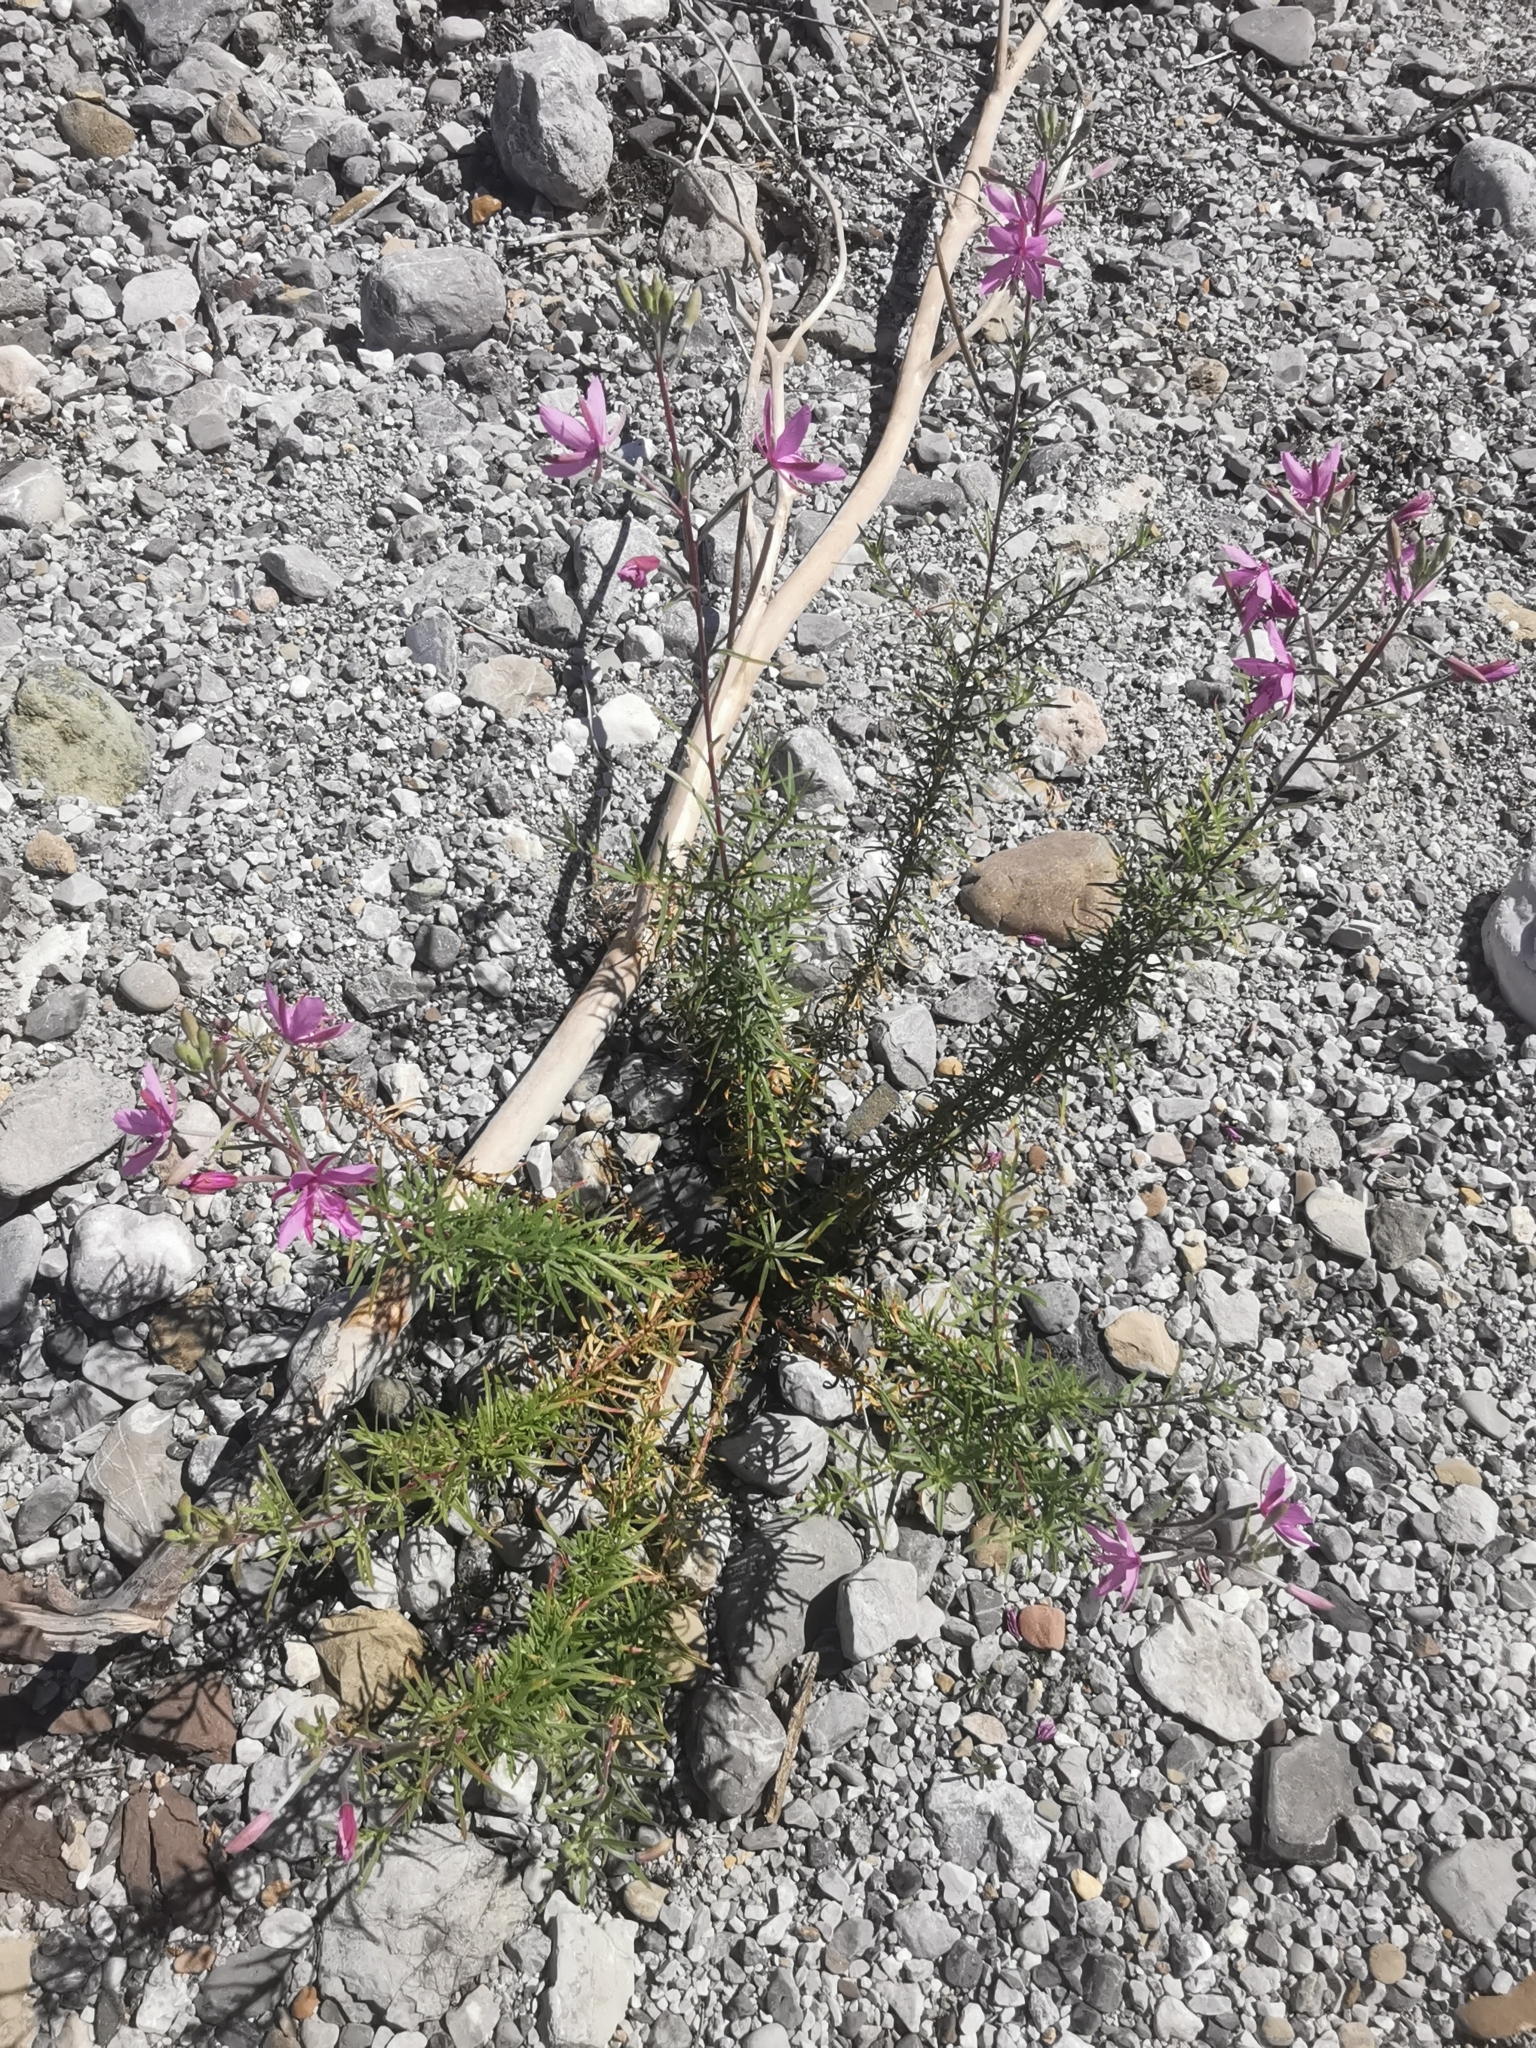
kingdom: Plantae
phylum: Tracheophyta
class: Magnoliopsida
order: Myrtales
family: Onagraceae
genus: Chamaenerion
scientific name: Chamaenerion dodonaei
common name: Rosemary-leaved willowherb
